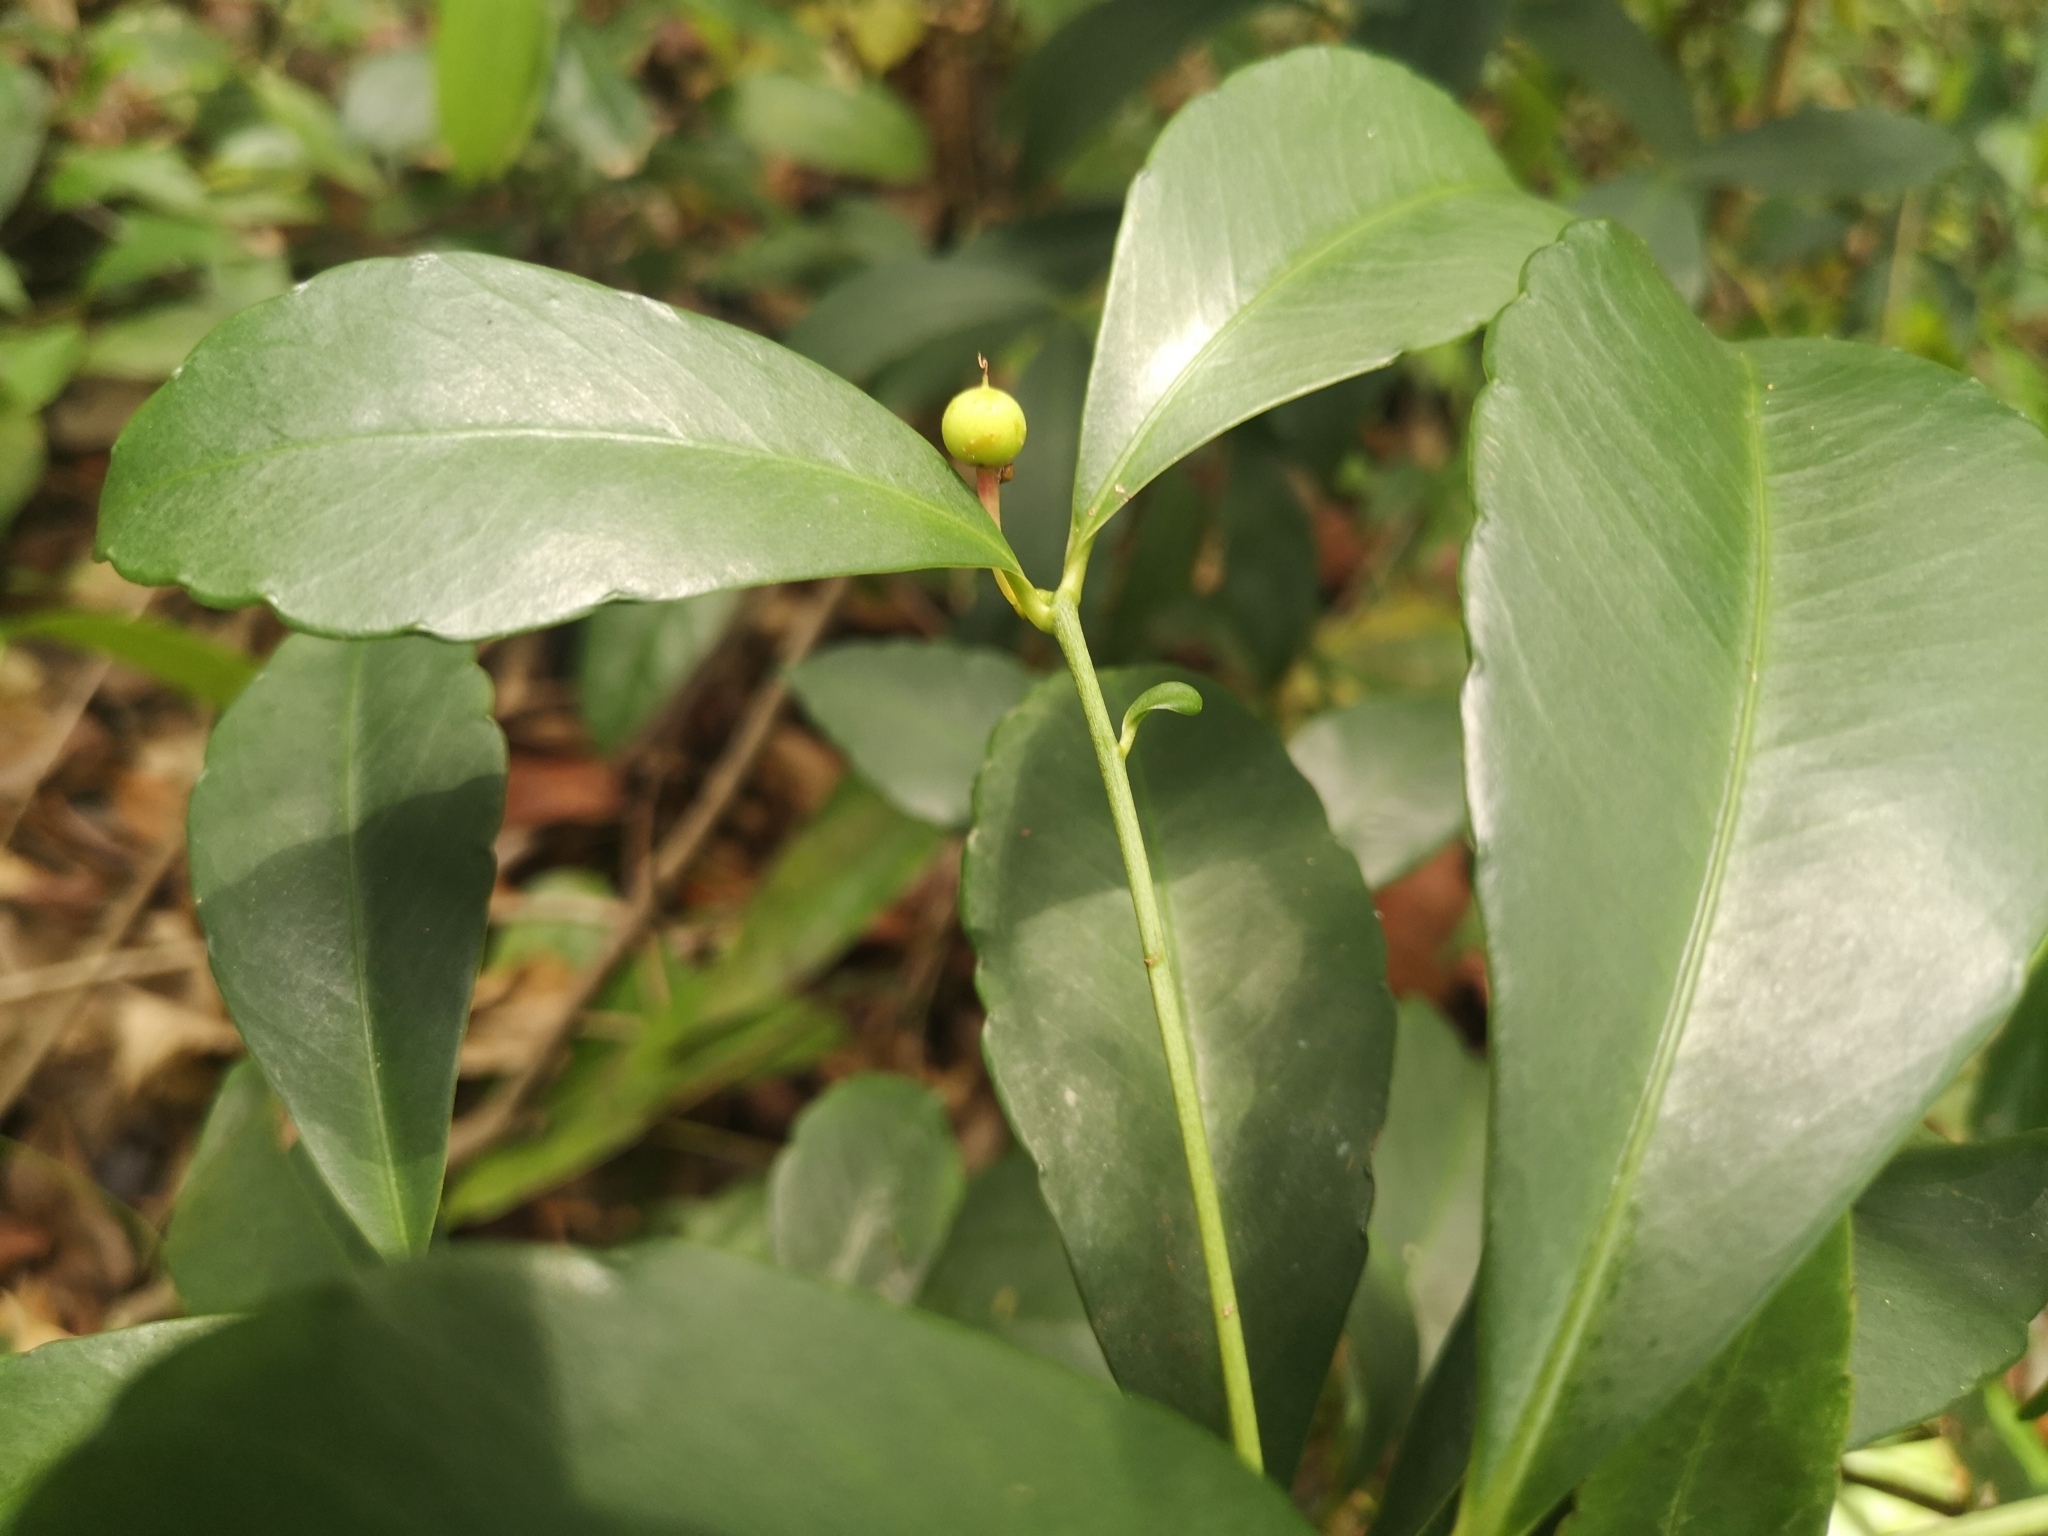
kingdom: Plantae
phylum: Tracheophyta
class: Magnoliopsida
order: Ericales
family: Primulaceae
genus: Ardisia
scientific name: Ardisia crenata
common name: Hen's eyes
